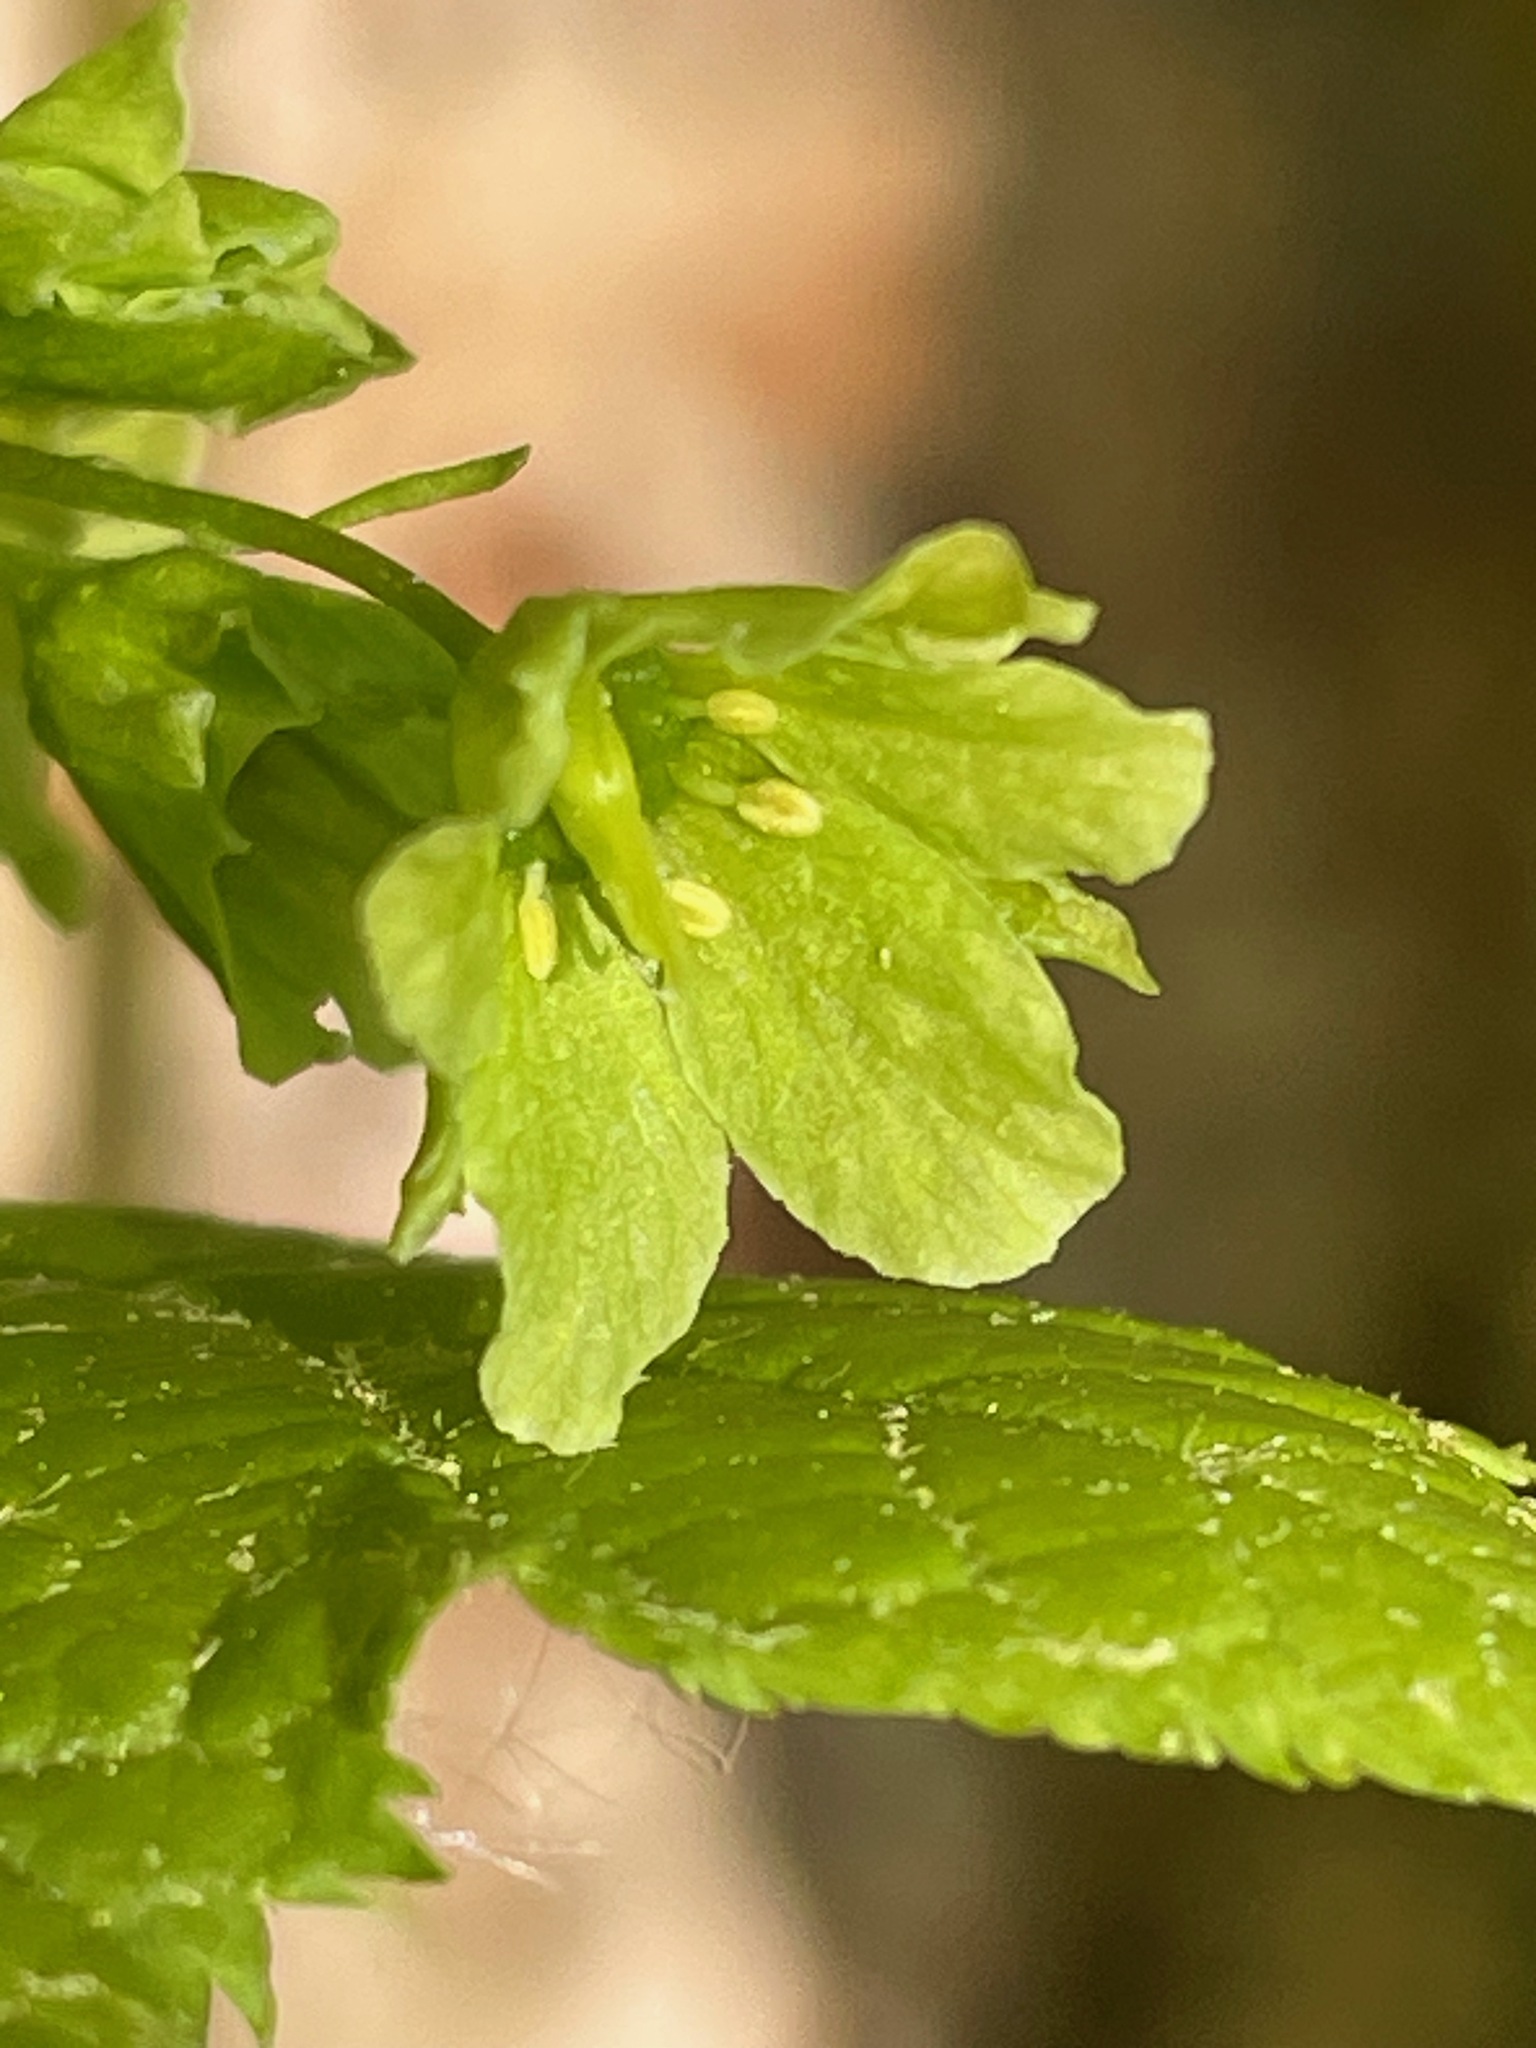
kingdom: Plantae
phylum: Tracheophyta
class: Magnoliopsida
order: Sapindales
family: Sapindaceae
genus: Acer
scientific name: Acer pensylvanicum
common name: Moosewood
